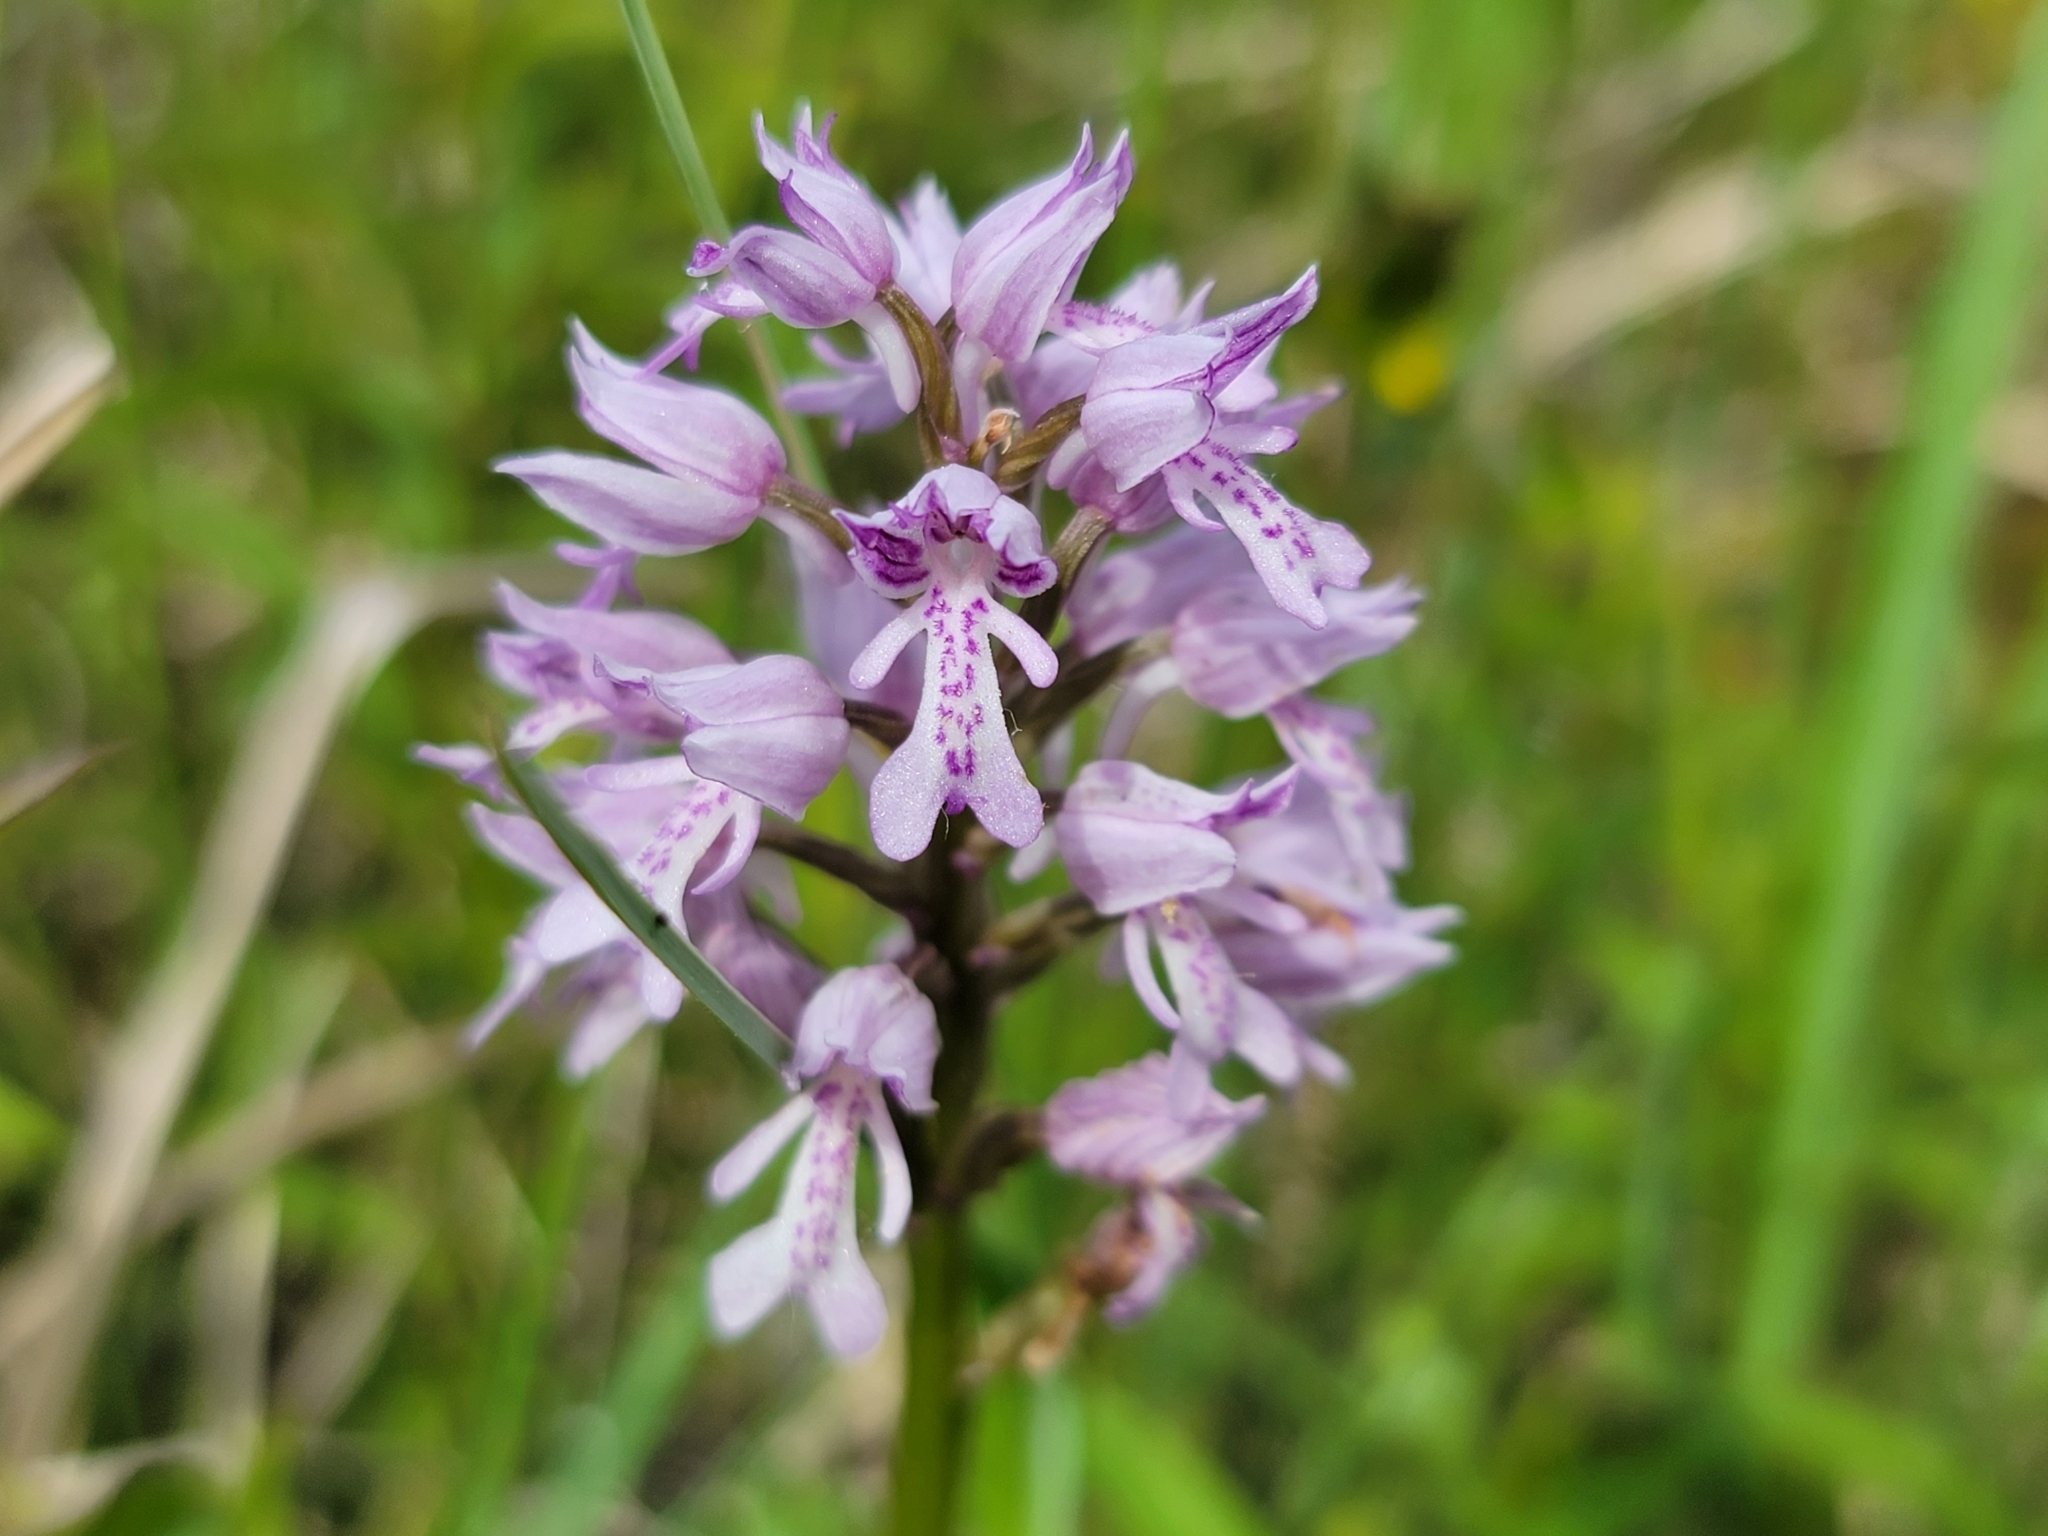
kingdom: Plantae
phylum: Tracheophyta
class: Liliopsida
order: Asparagales
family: Orchidaceae
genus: Orchis
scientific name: Orchis militaris
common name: Military orchid
